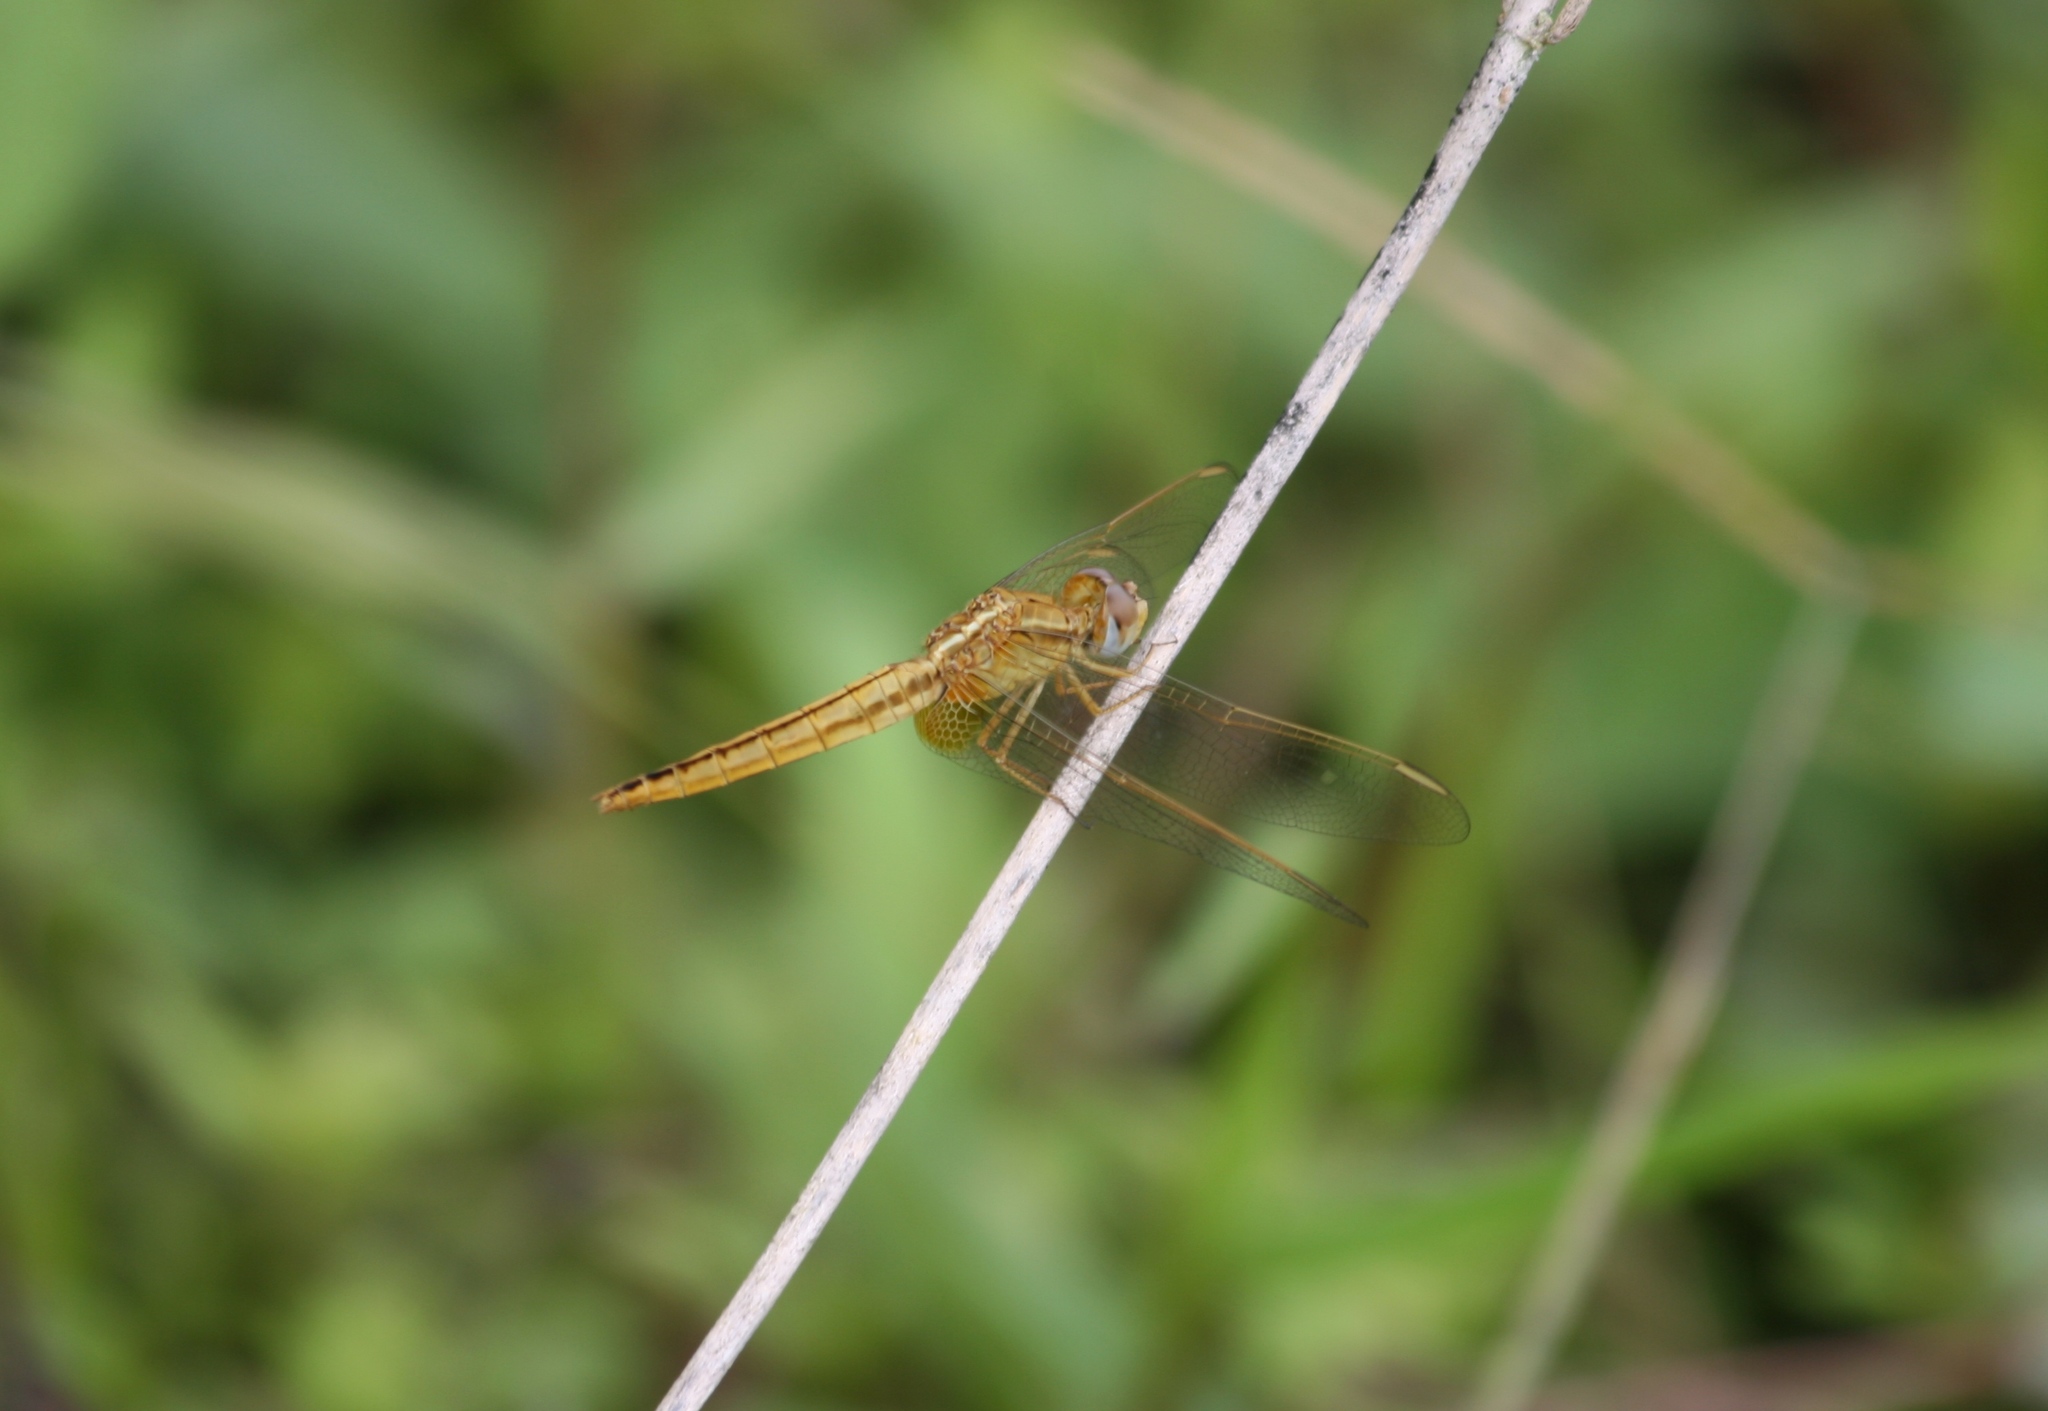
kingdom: Animalia
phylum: Arthropoda
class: Insecta
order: Odonata
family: Libellulidae
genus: Crocothemis
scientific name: Crocothemis erythraea
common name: Scarlet dragonfly
